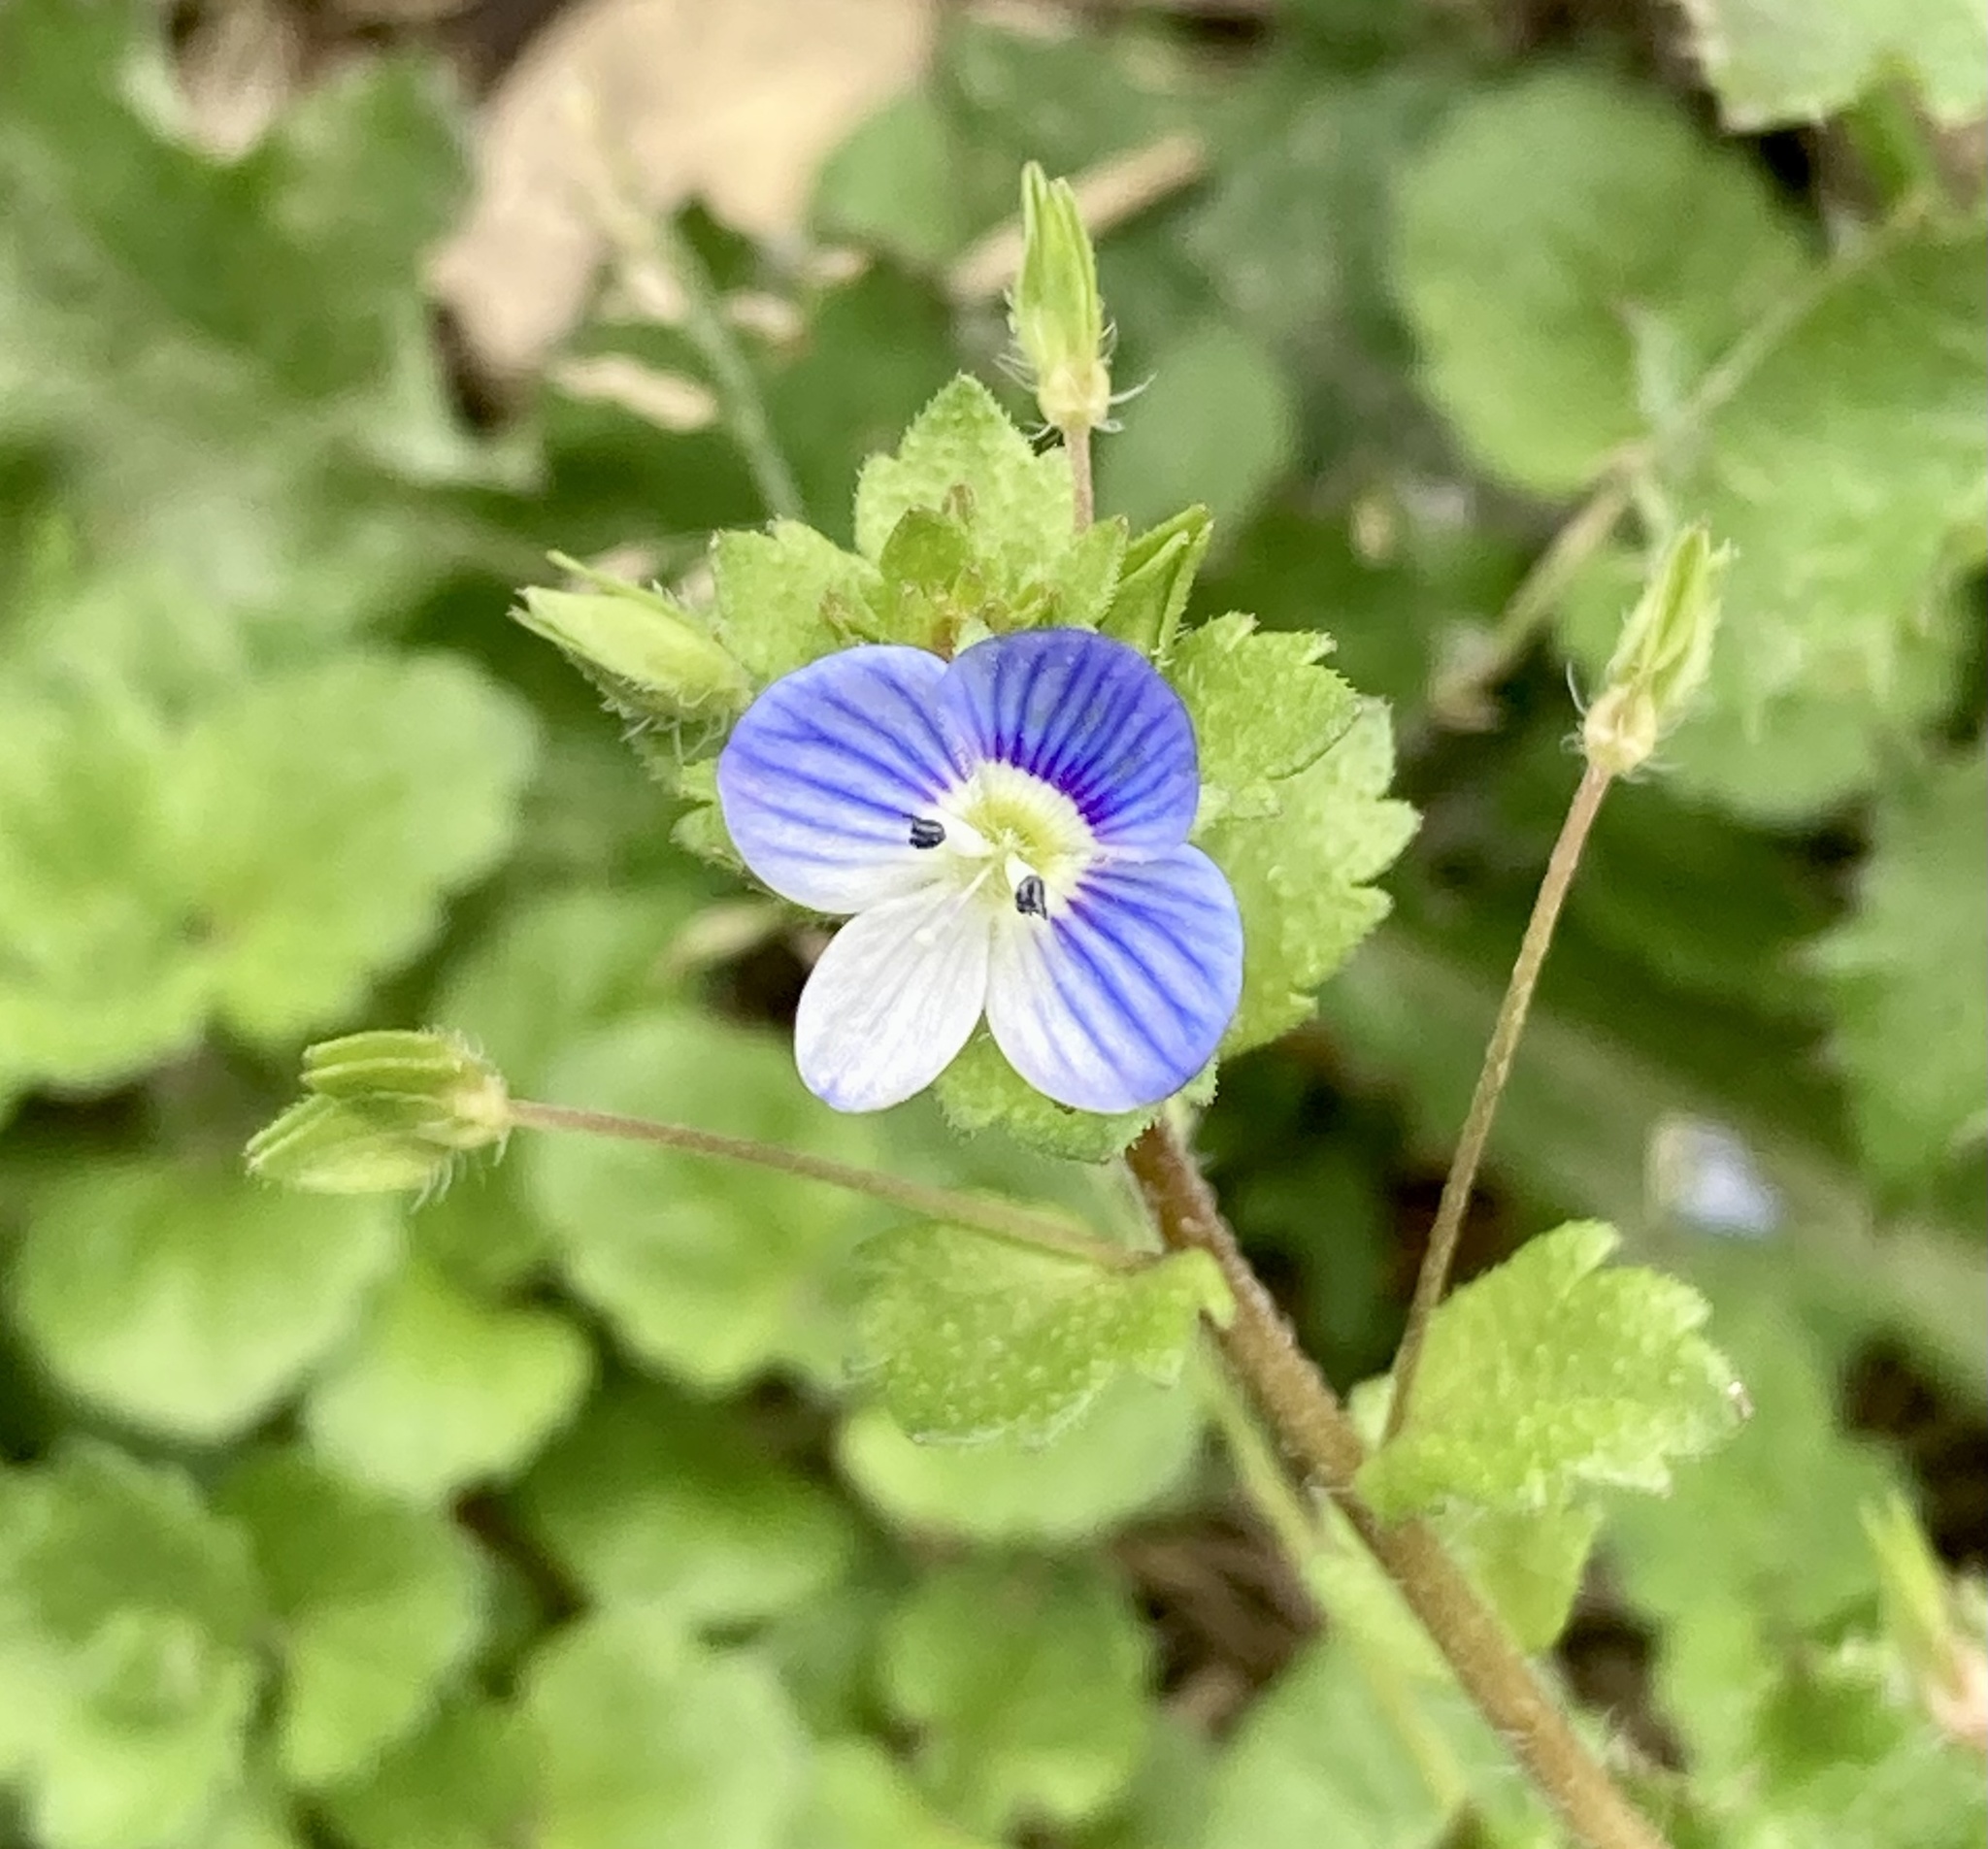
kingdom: Plantae
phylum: Tracheophyta
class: Magnoliopsida
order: Lamiales
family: Plantaginaceae
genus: Veronica
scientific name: Veronica persica
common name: Common field-speedwell
